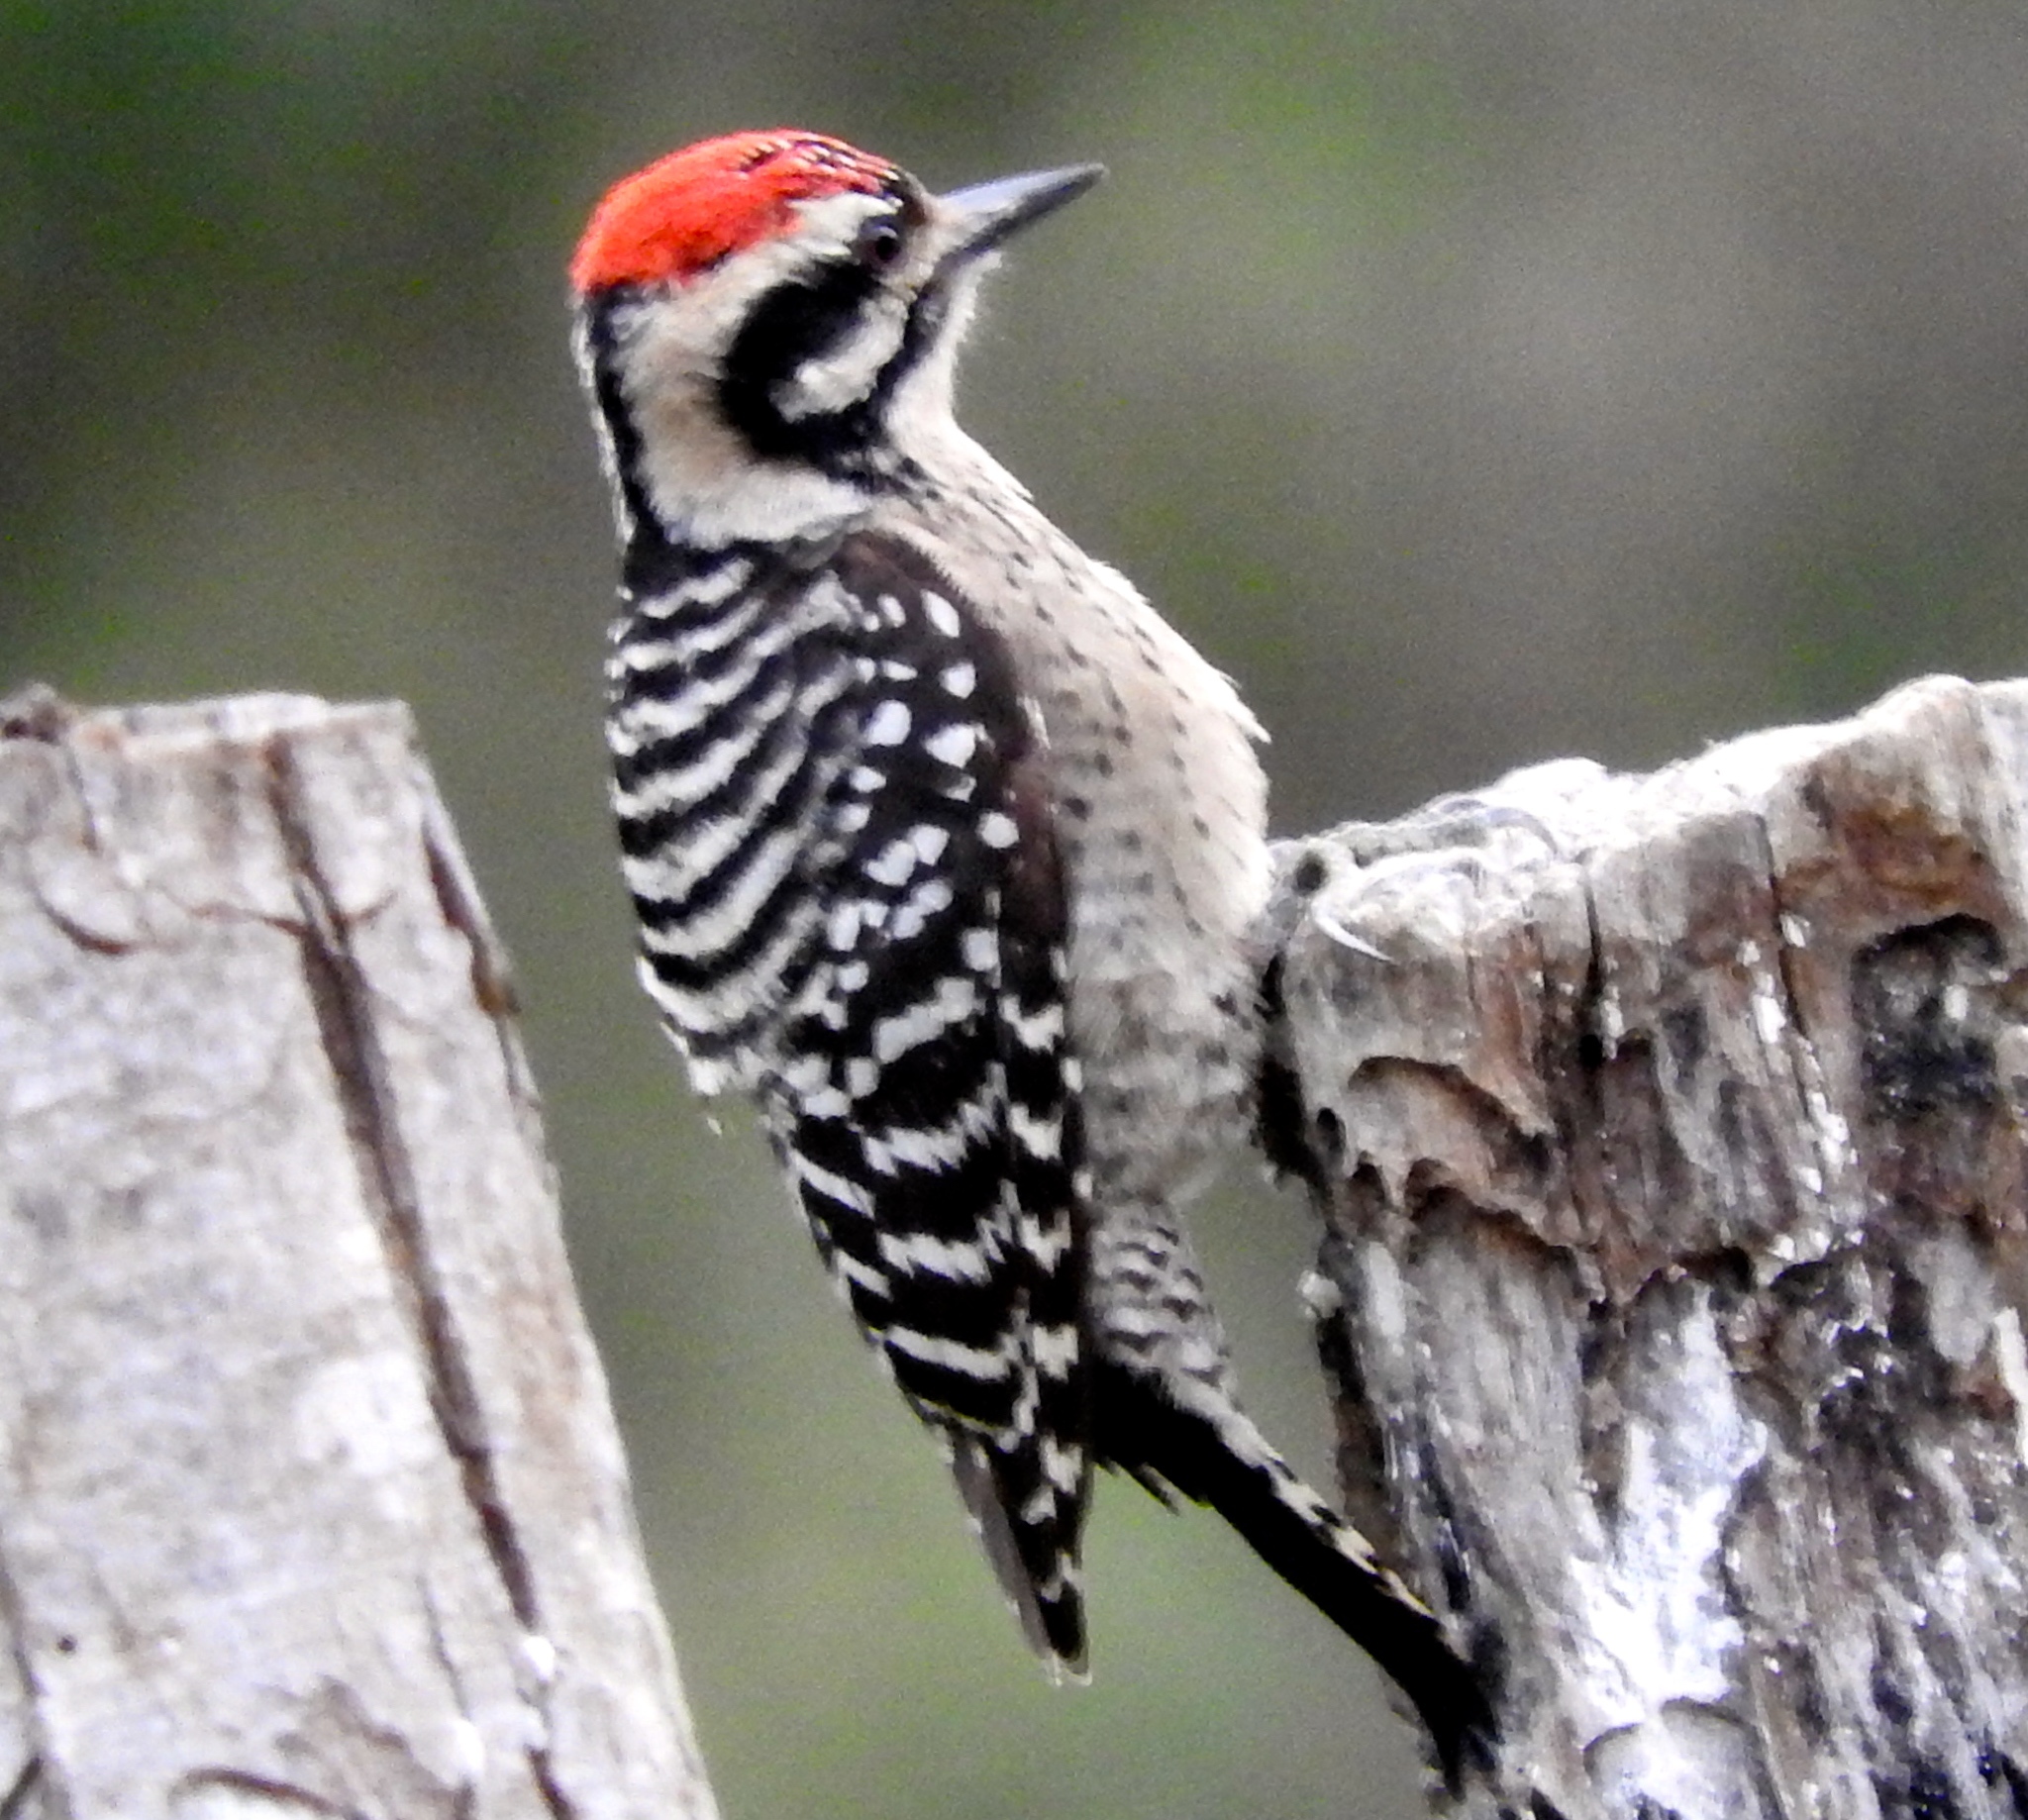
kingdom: Animalia
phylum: Chordata
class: Aves
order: Piciformes
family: Picidae
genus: Dryobates
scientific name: Dryobates scalaris
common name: Ladder-backed woodpecker
